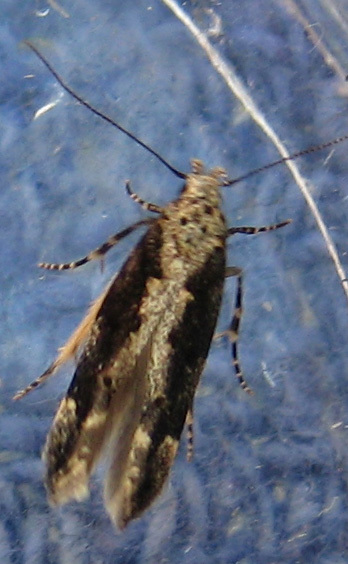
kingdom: Animalia
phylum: Arthropoda
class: Insecta
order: Lepidoptera
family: Gelechiidae
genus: Coleotechnites
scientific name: Coleotechnites florae
